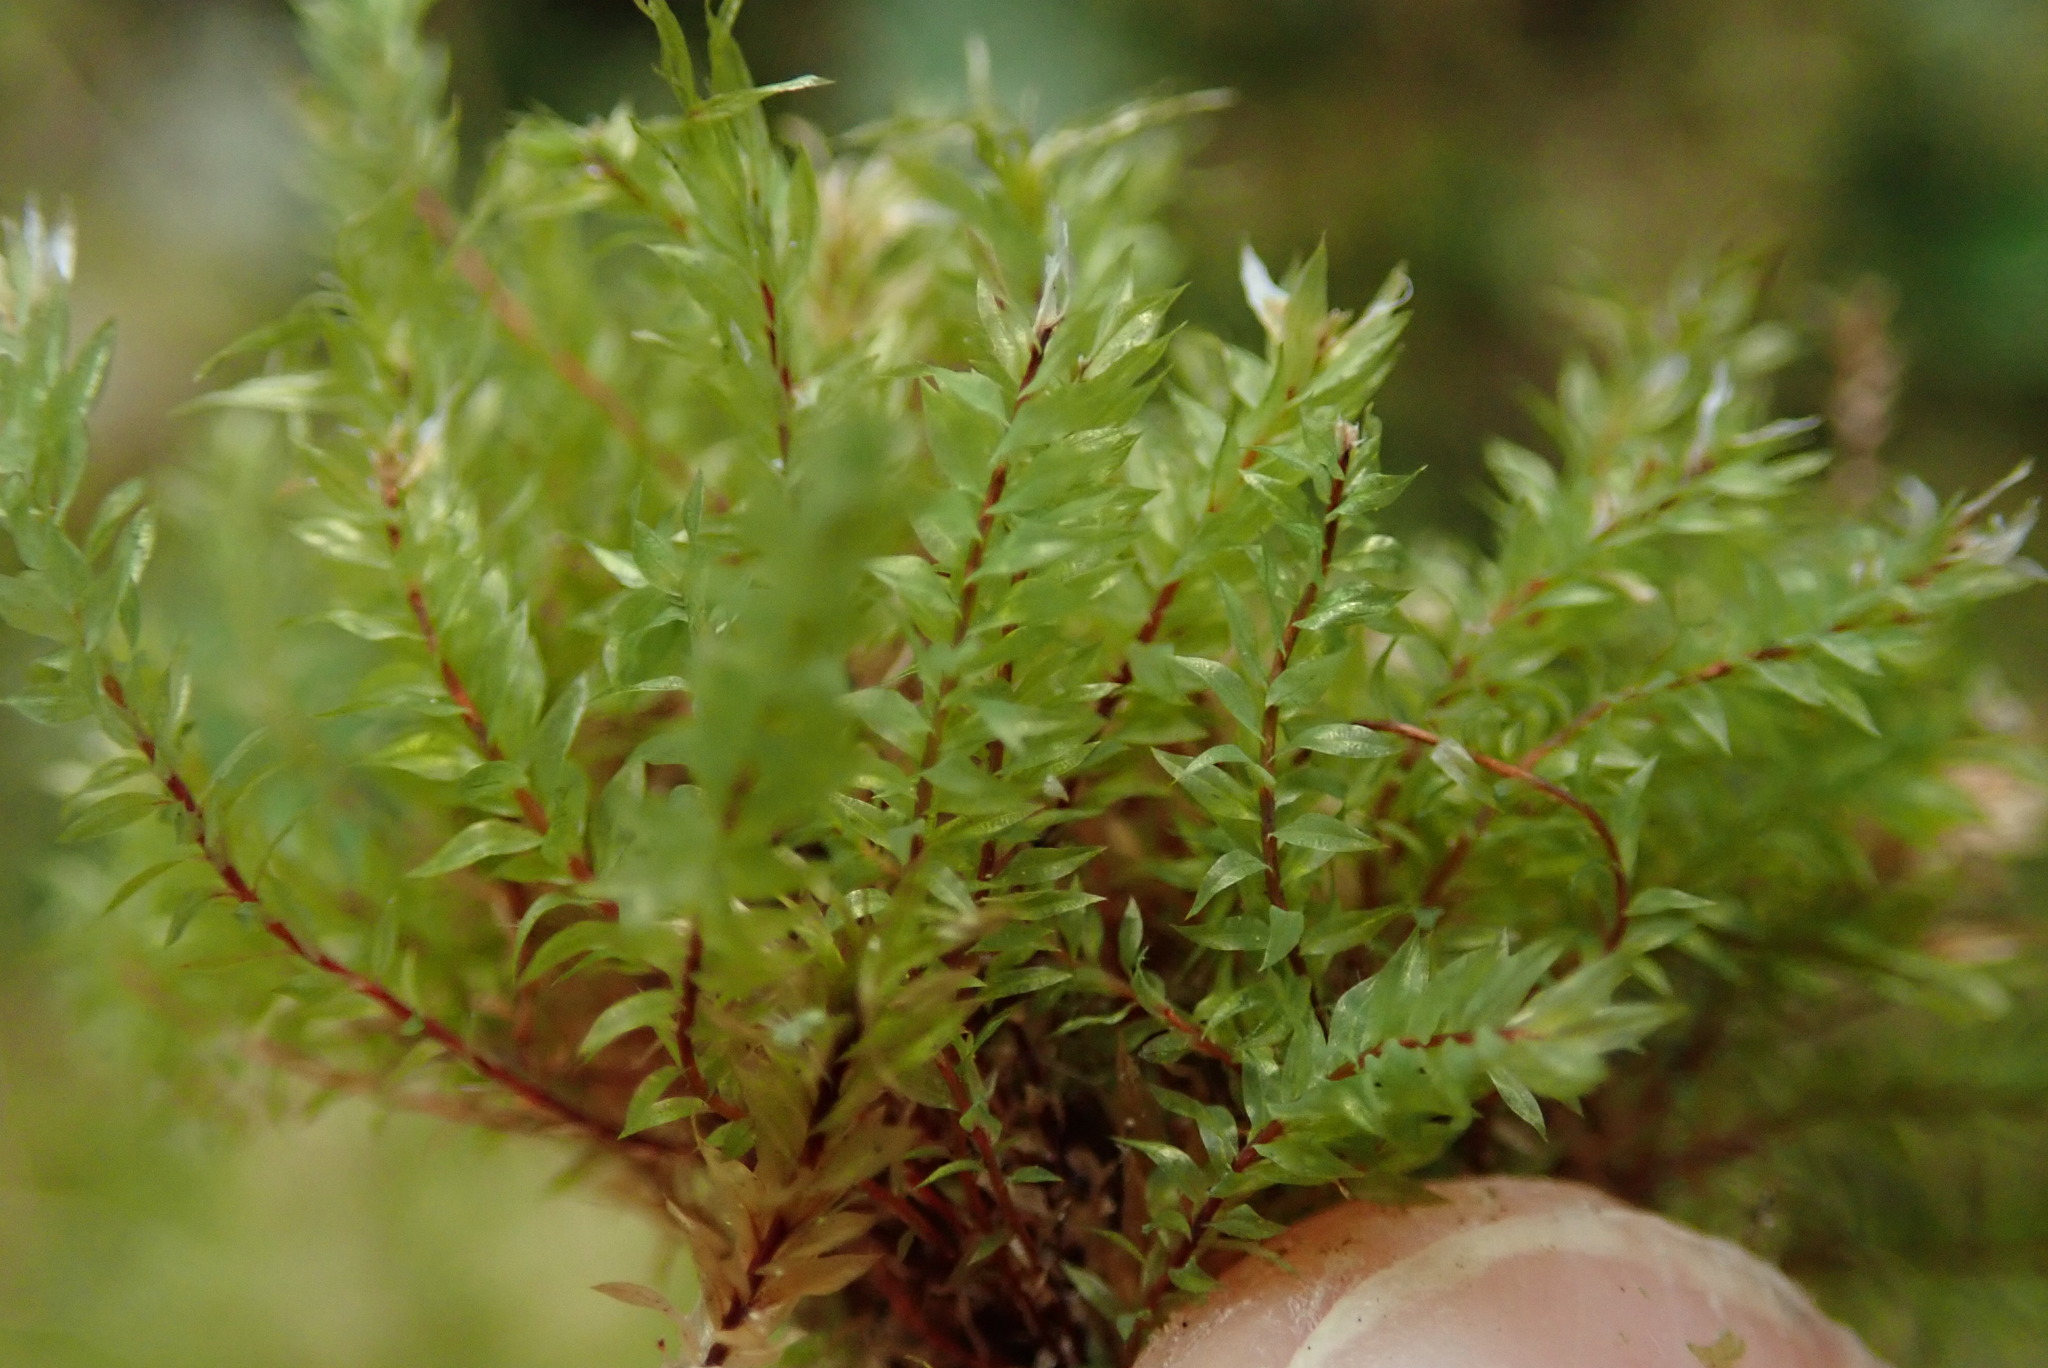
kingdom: Plantae
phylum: Bryophyta
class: Bryopsida
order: Bryales
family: Mniaceae
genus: Pohlia
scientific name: Pohlia cruda
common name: Opal nodding moss
